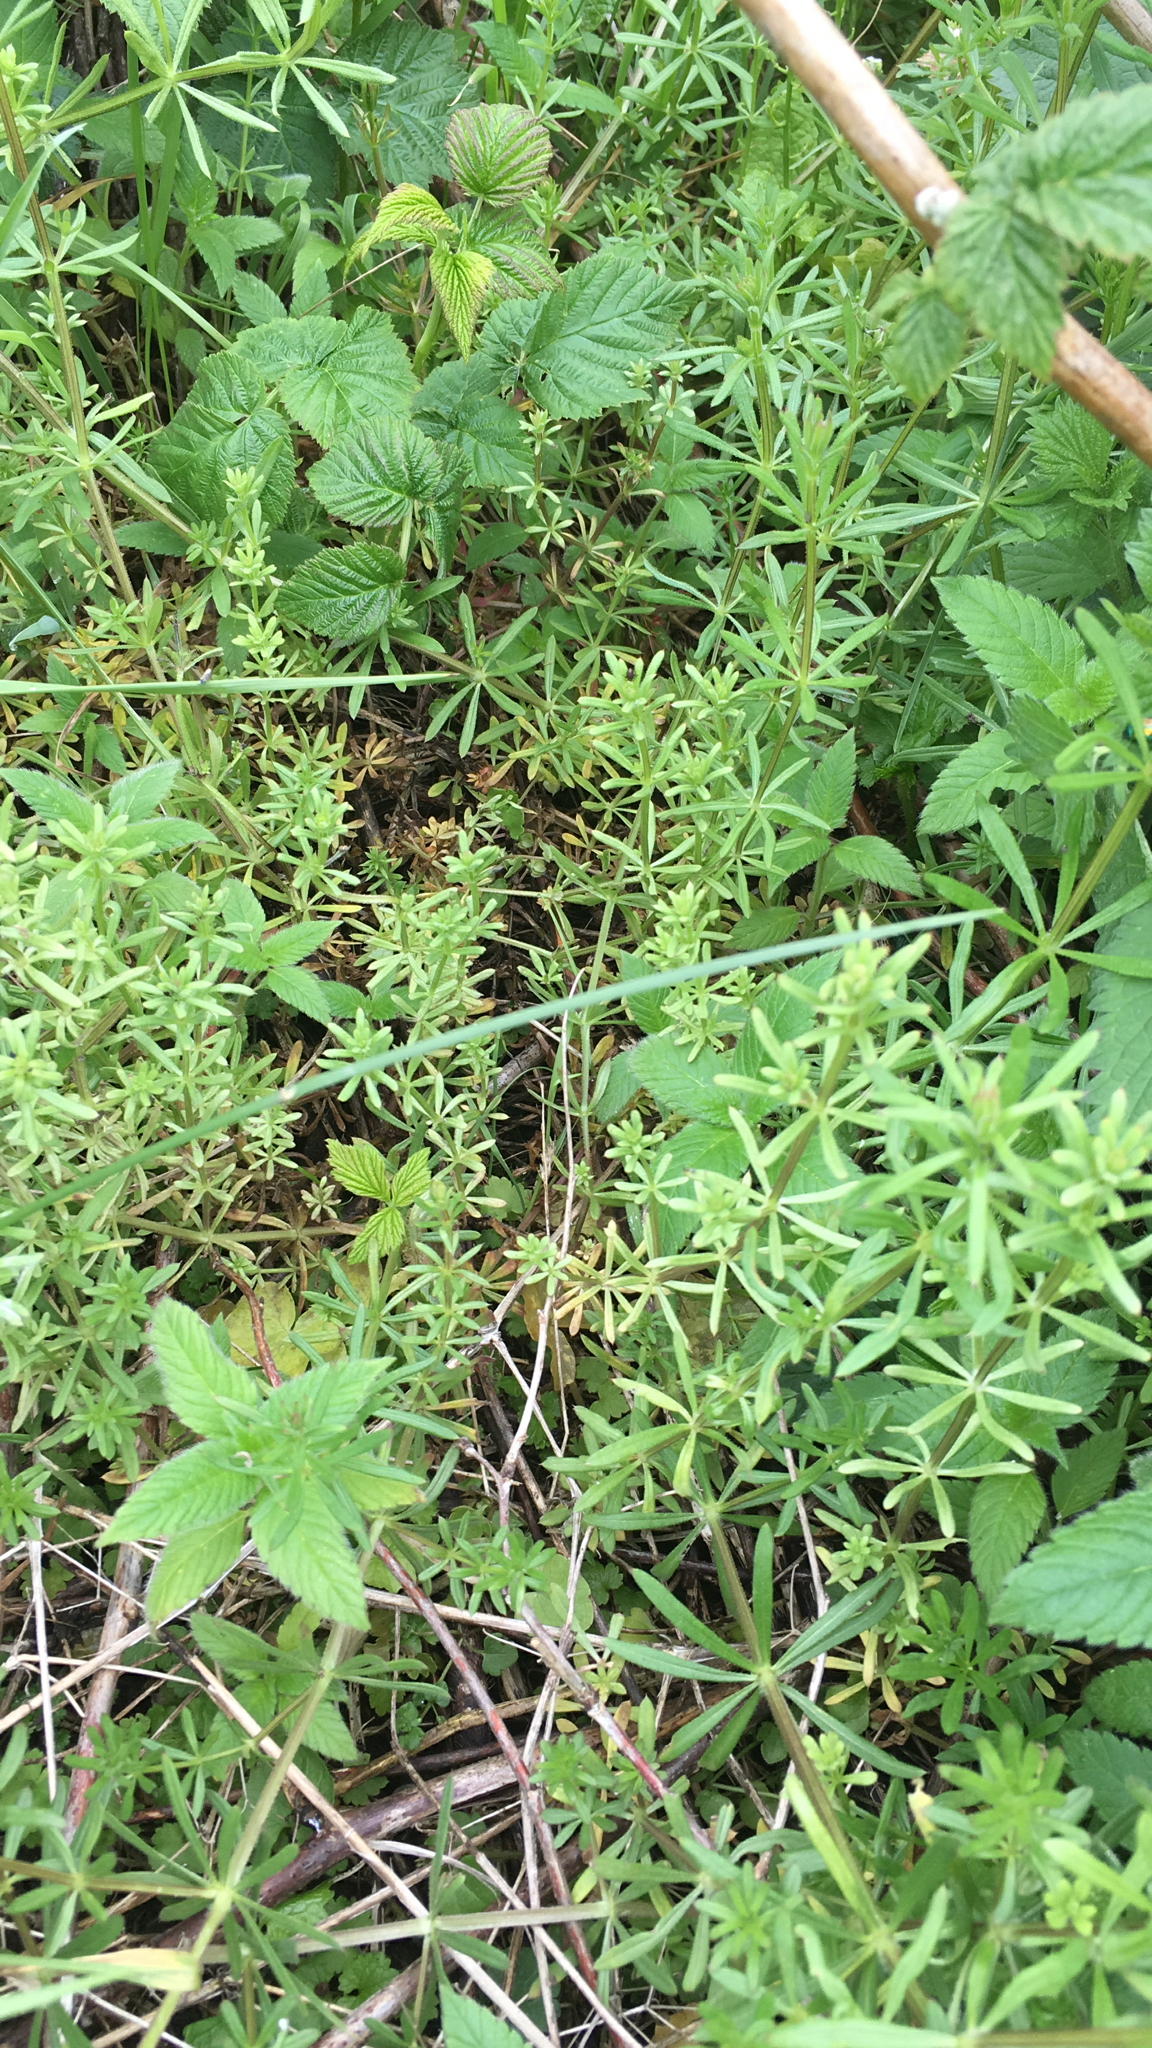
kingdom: Plantae
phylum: Tracheophyta
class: Magnoliopsida
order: Gentianales
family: Rubiaceae
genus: Galium
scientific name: Galium aparine
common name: Cleavers
